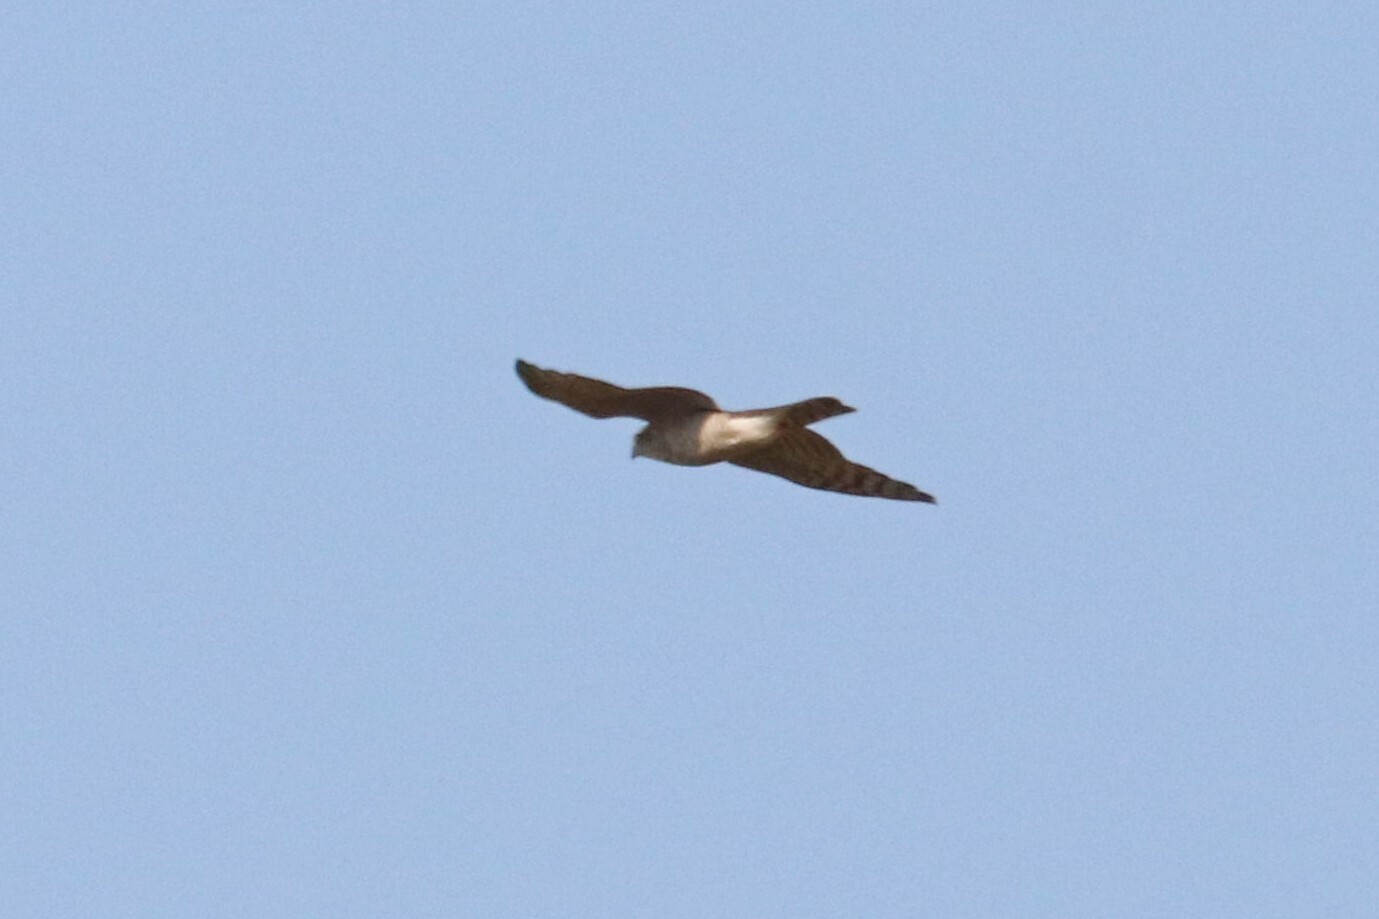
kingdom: Animalia
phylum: Chordata
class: Aves
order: Accipitriformes
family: Accipitridae
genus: Accipiter
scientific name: Accipiter nisus
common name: Eurasian sparrowhawk
